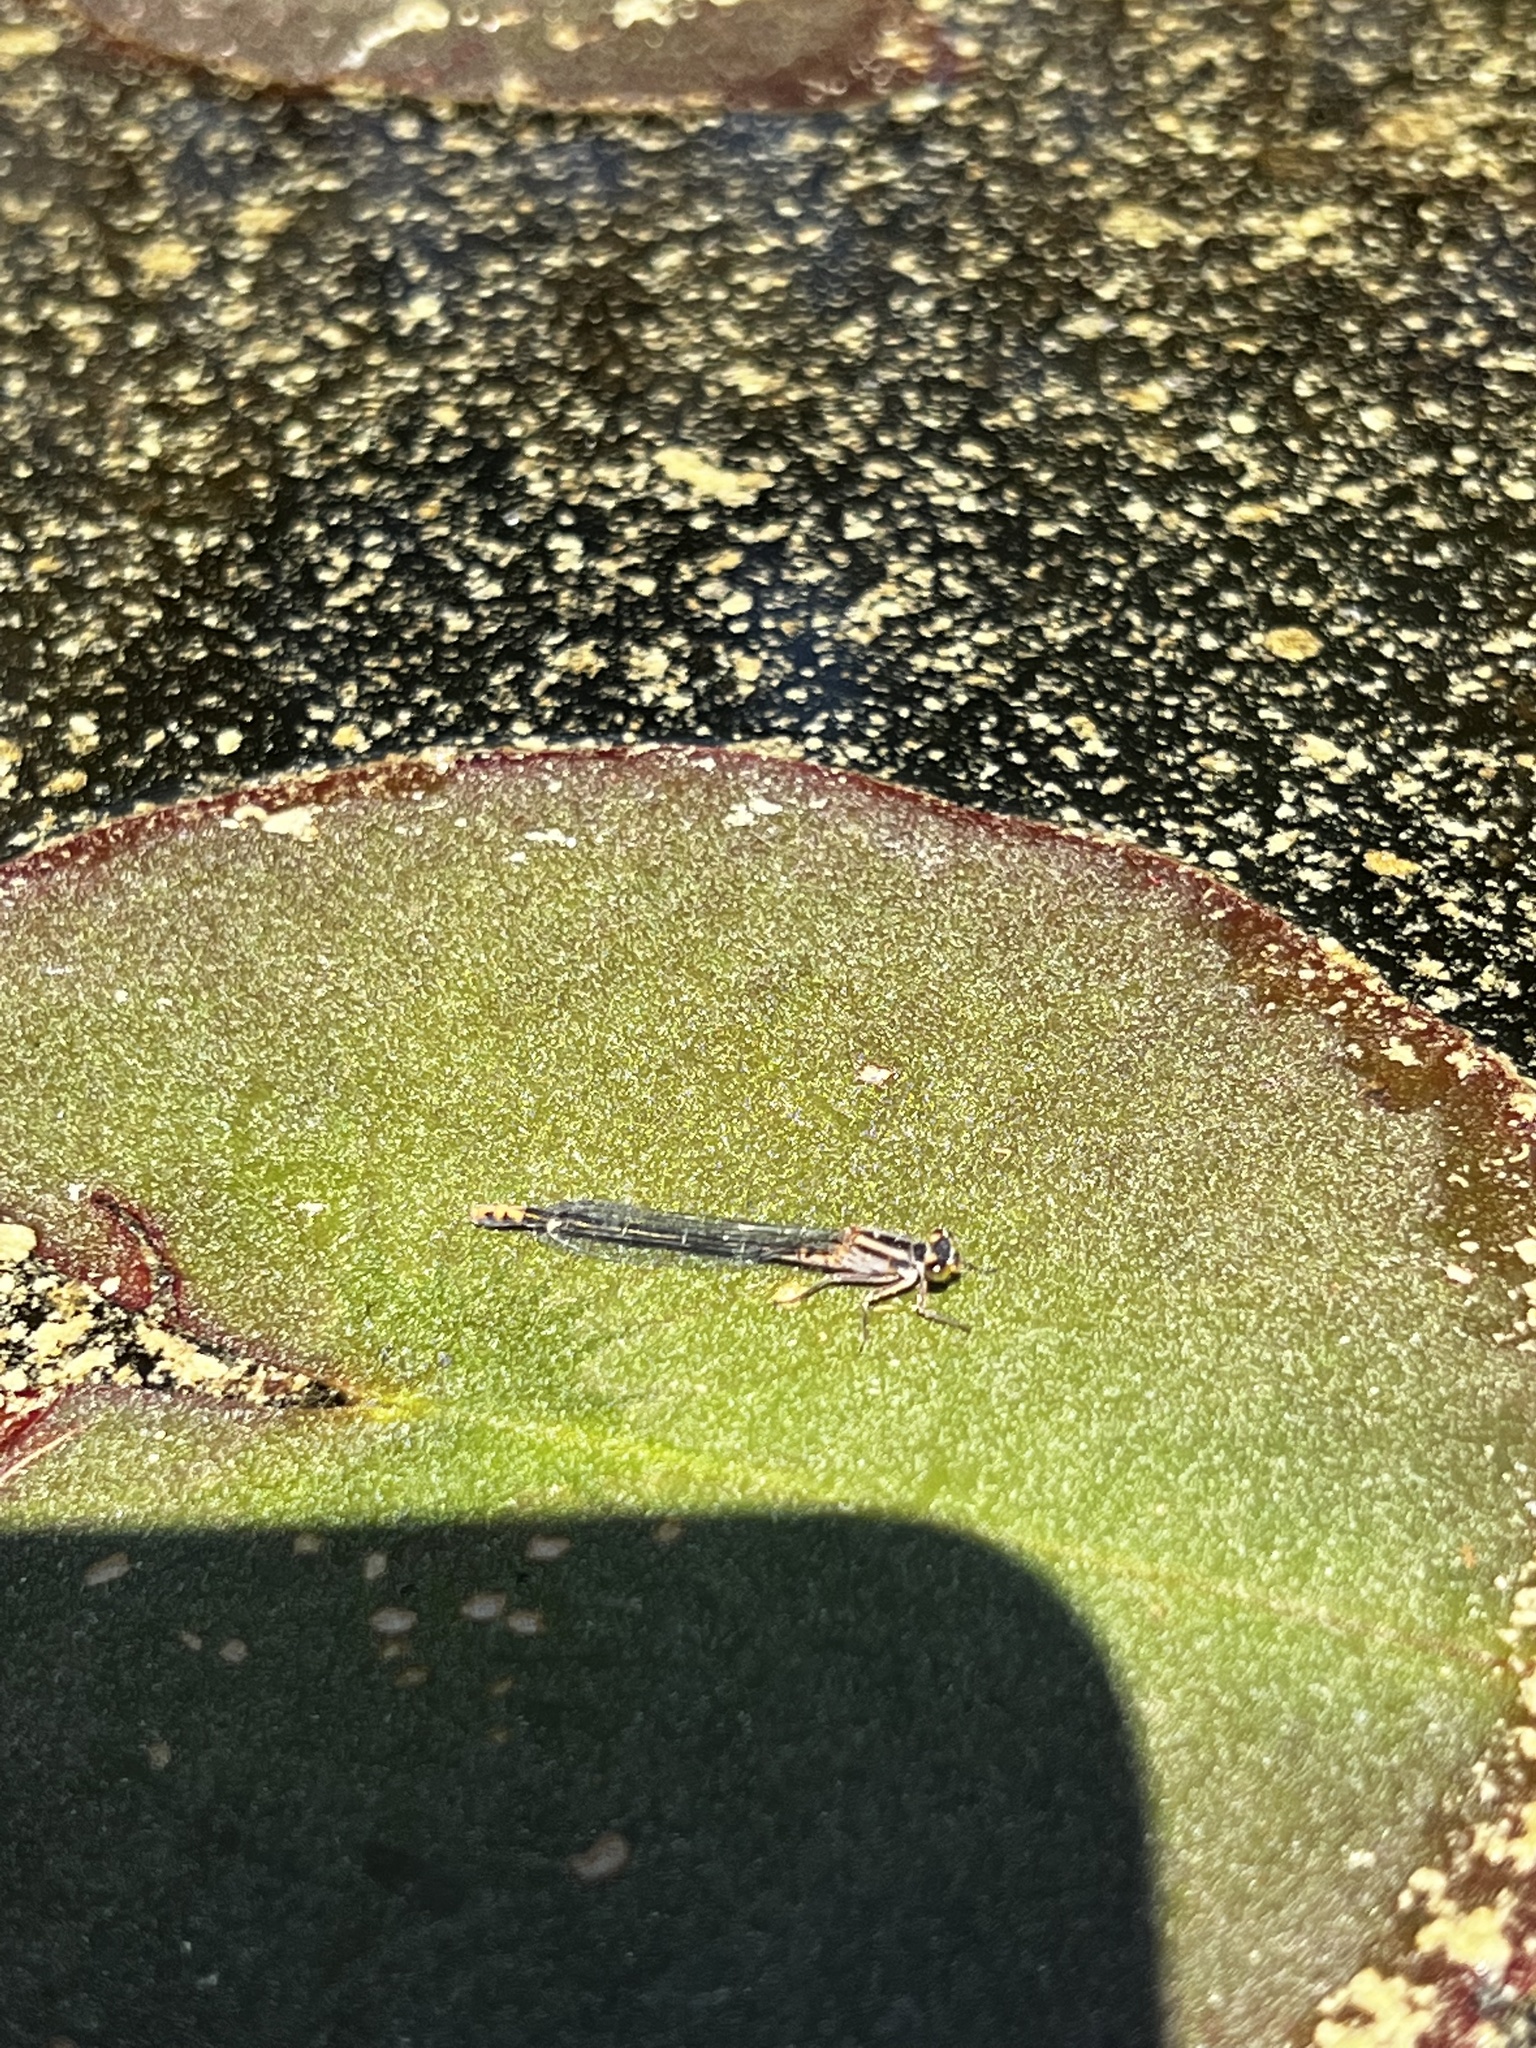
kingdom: Animalia
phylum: Arthropoda
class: Insecta
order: Odonata
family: Coenagrionidae
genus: Ischnura
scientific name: Ischnura kellicotti
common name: Lilypad forktail
